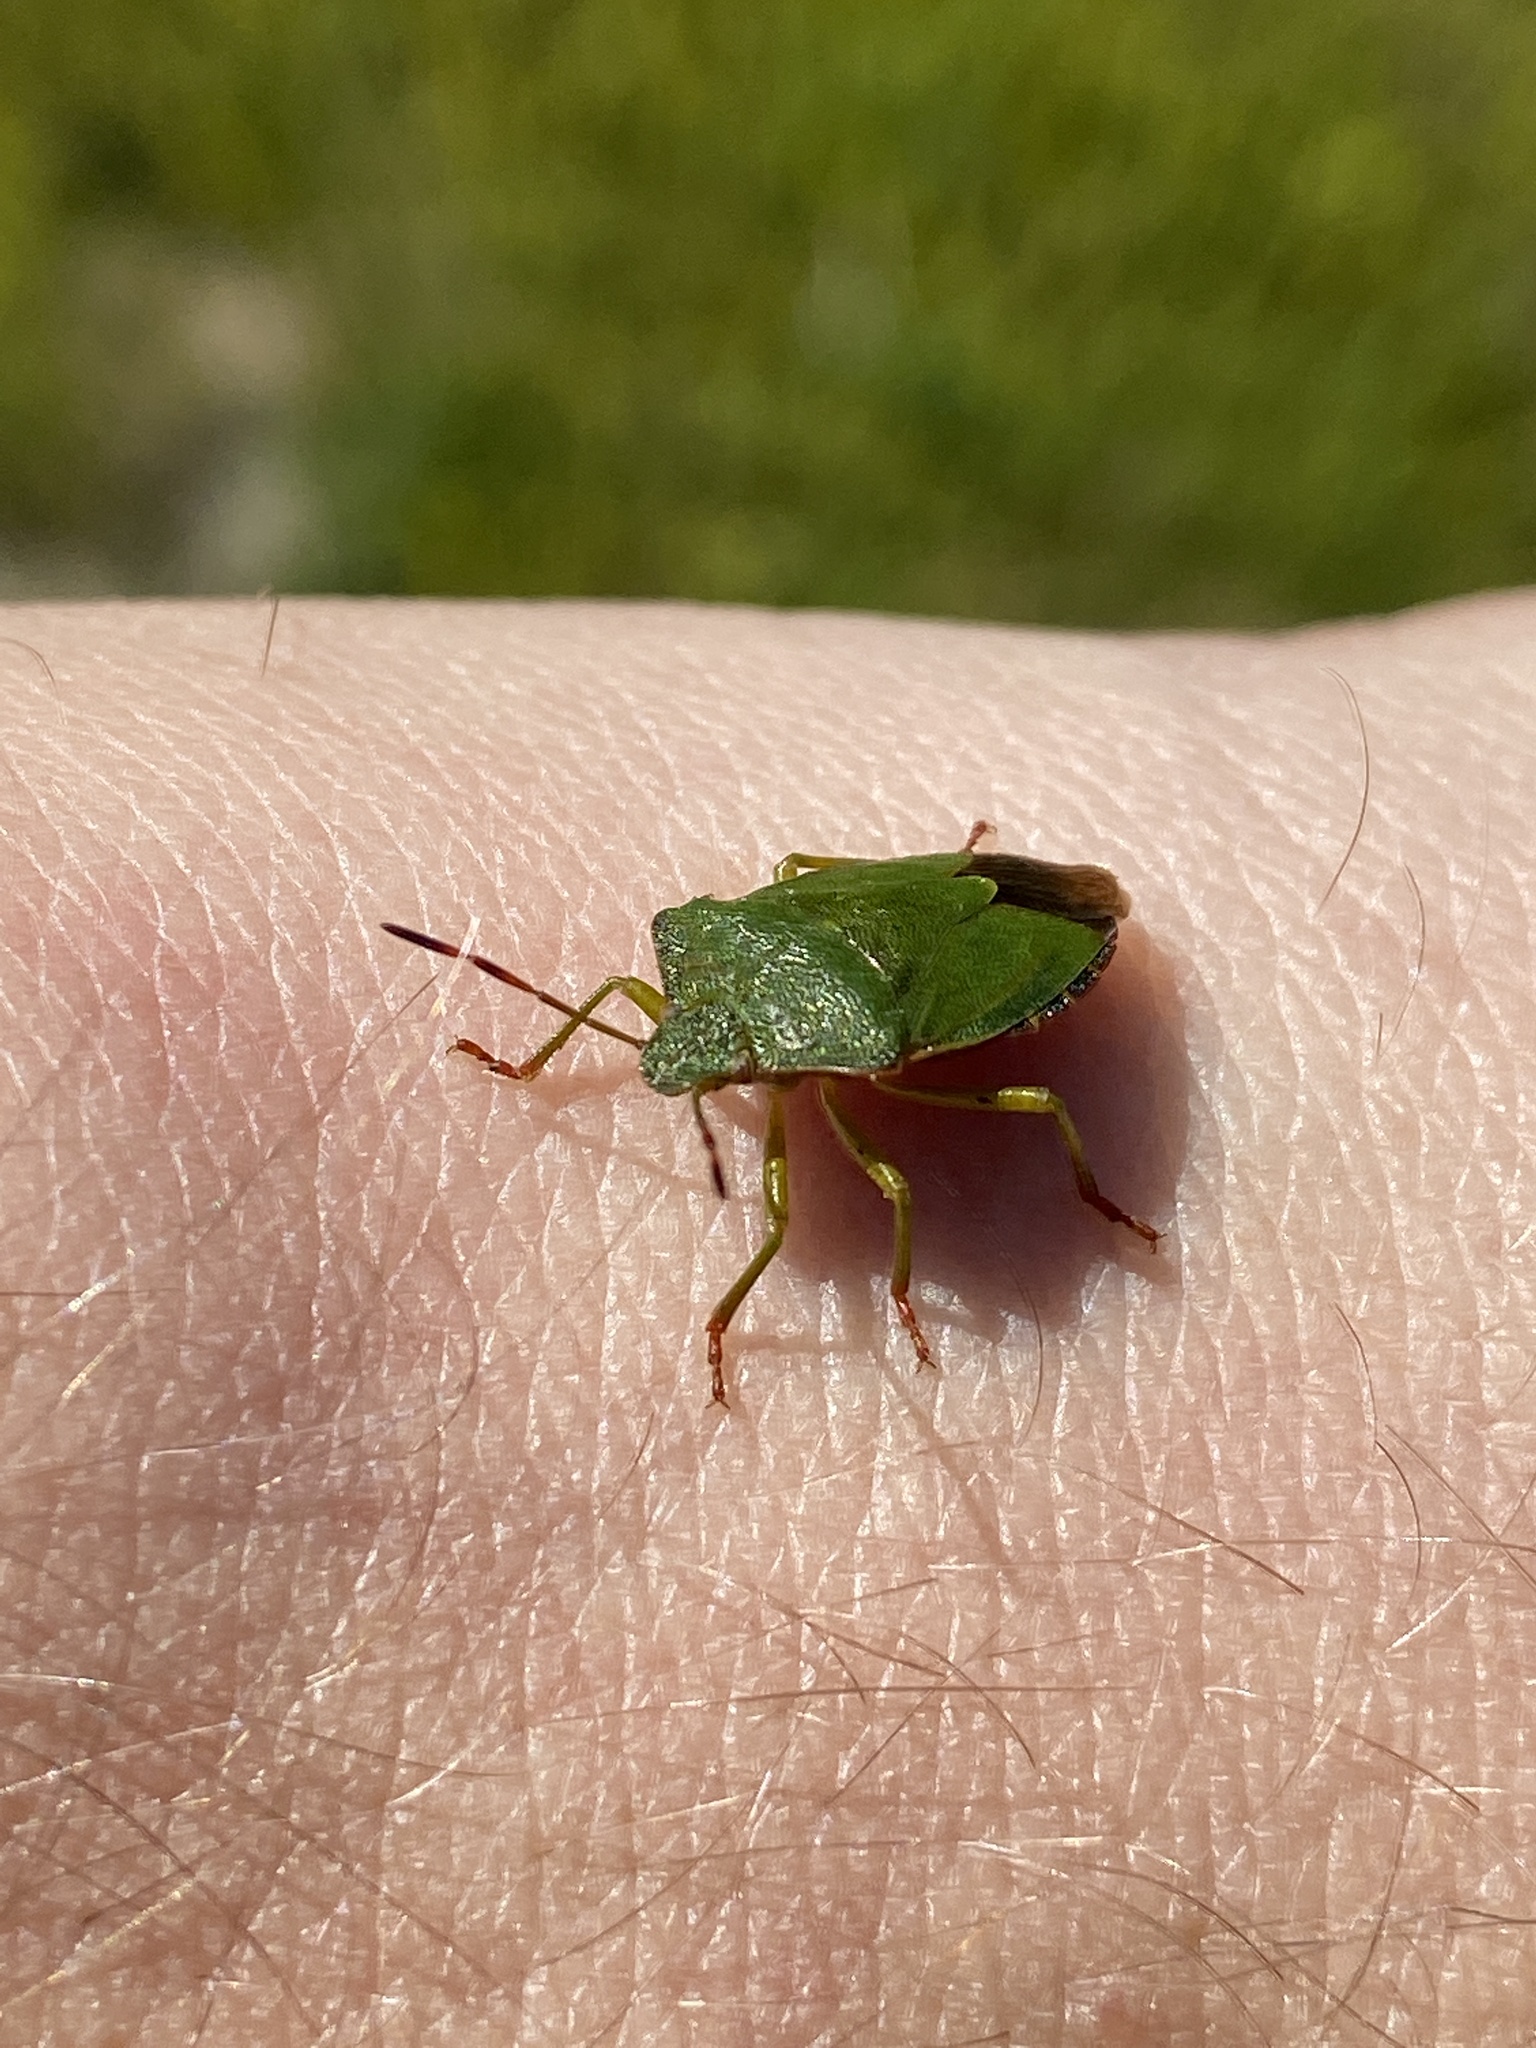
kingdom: Animalia
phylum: Arthropoda
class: Insecta
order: Hemiptera
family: Pentatomidae
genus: Palomena
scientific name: Palomena prasina
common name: Green shieldbug
